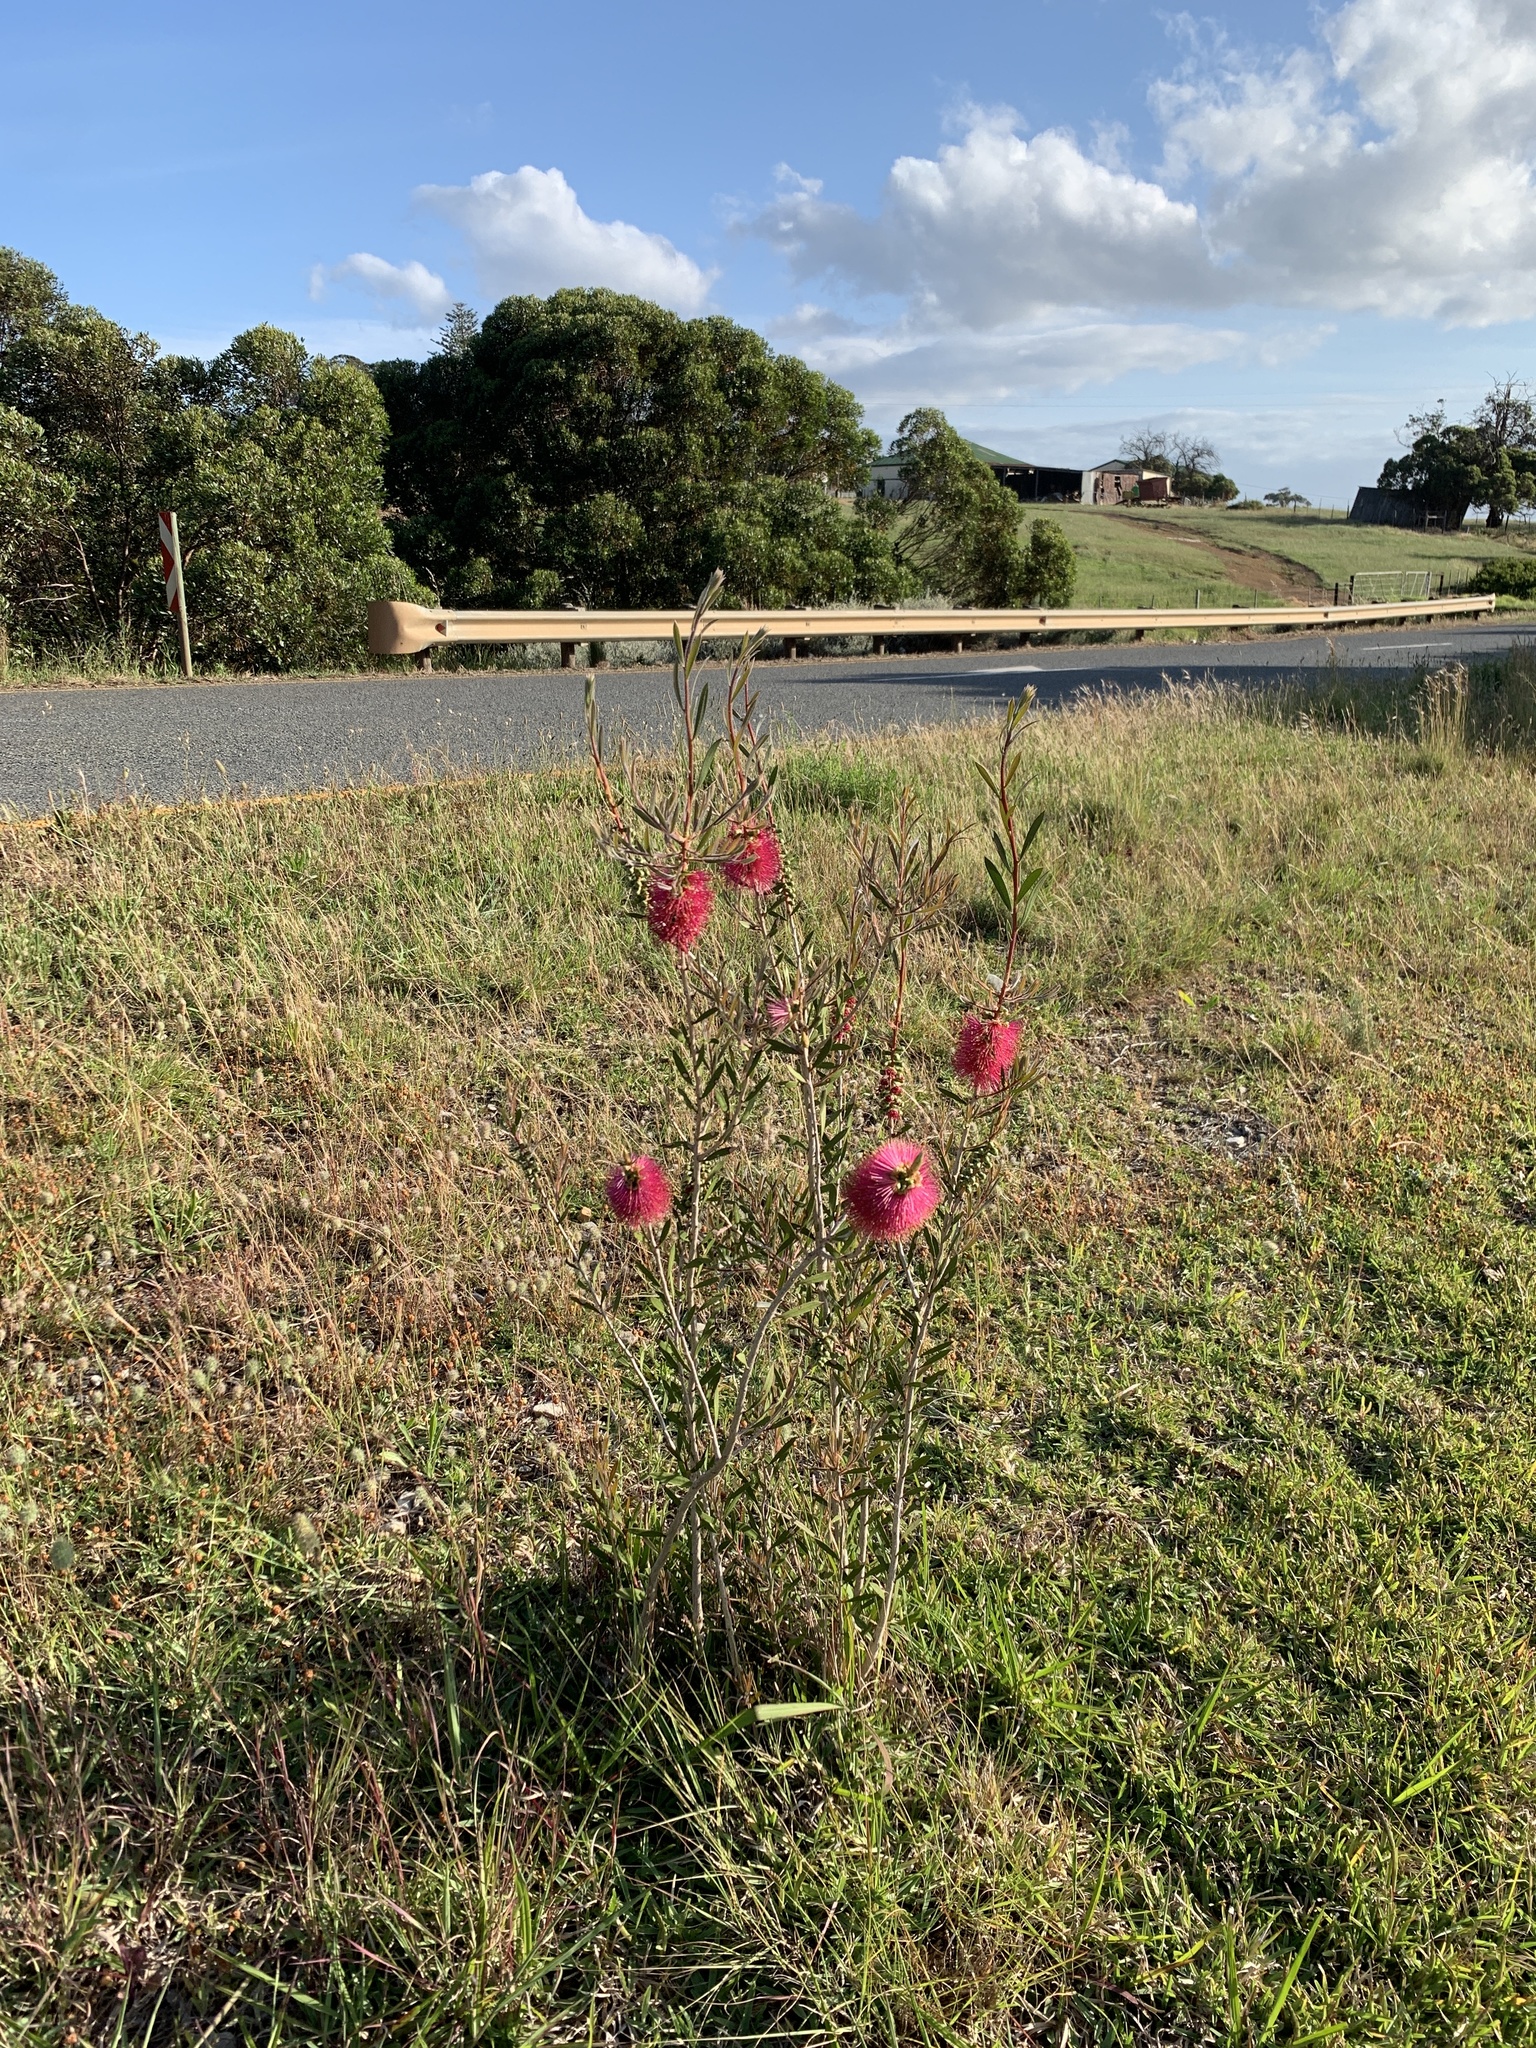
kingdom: Plantae
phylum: Tracheophyta
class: Magnoliopsida
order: Myrtales
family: Myrtaceae
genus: Callistemon
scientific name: Callistemon rugulosus
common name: Scarlet bottlebrush
